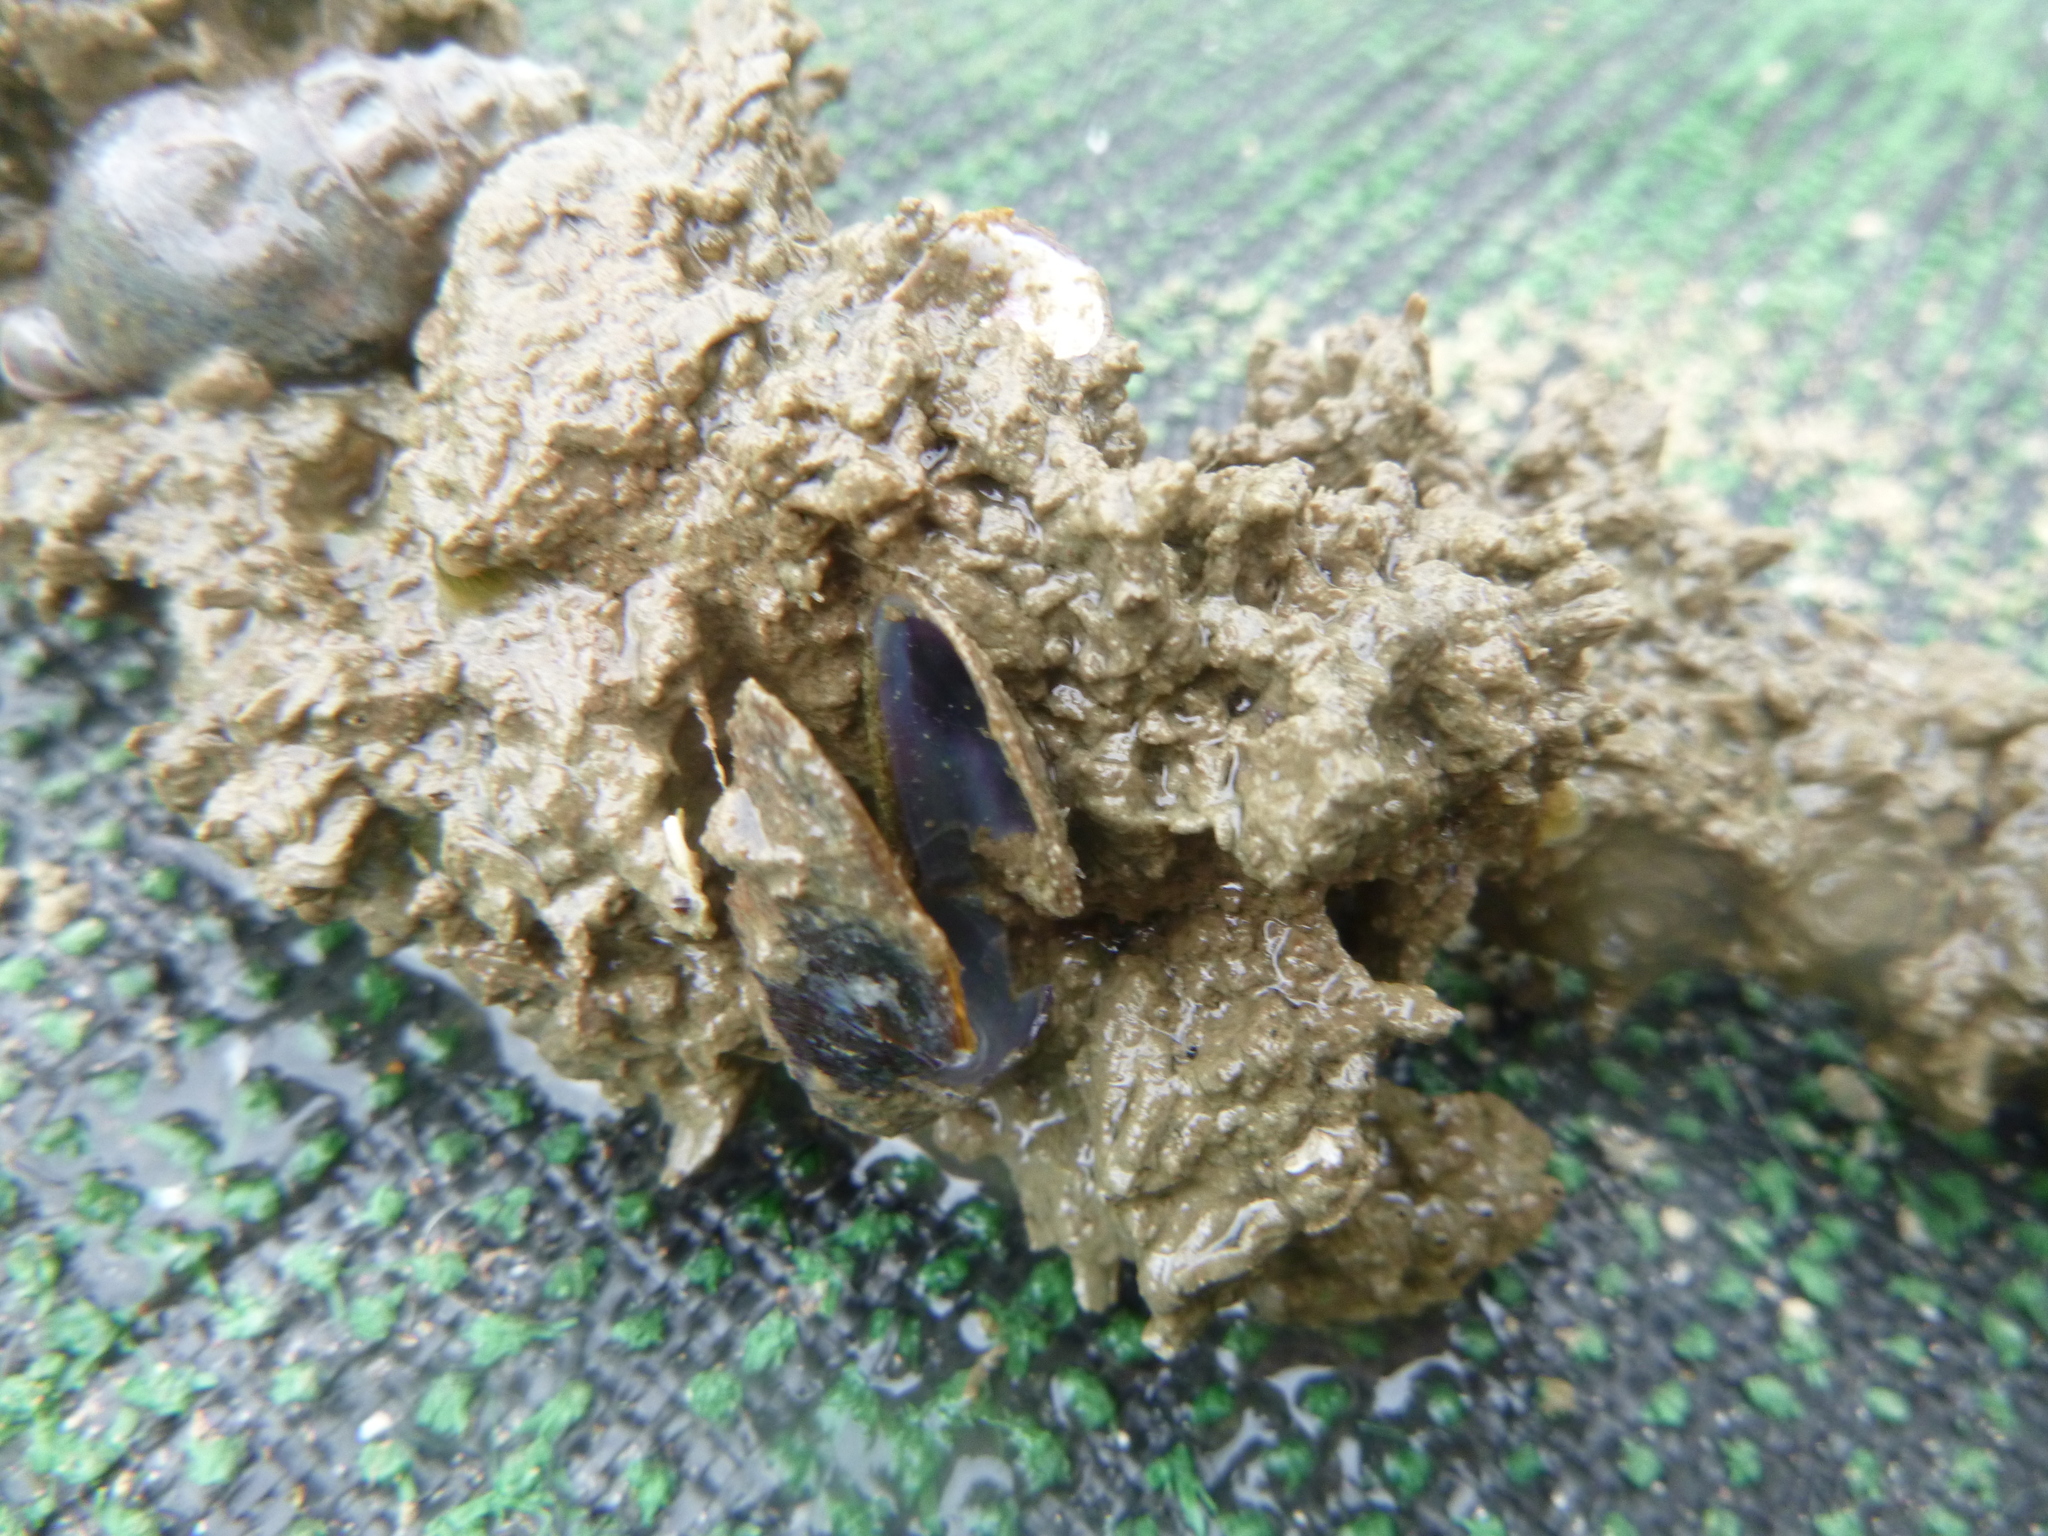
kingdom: Animalia
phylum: Mollusca
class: Bivalvia
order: Mytilida
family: Mytilidae
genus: Xenostrobus
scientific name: Xenostrobus securis
